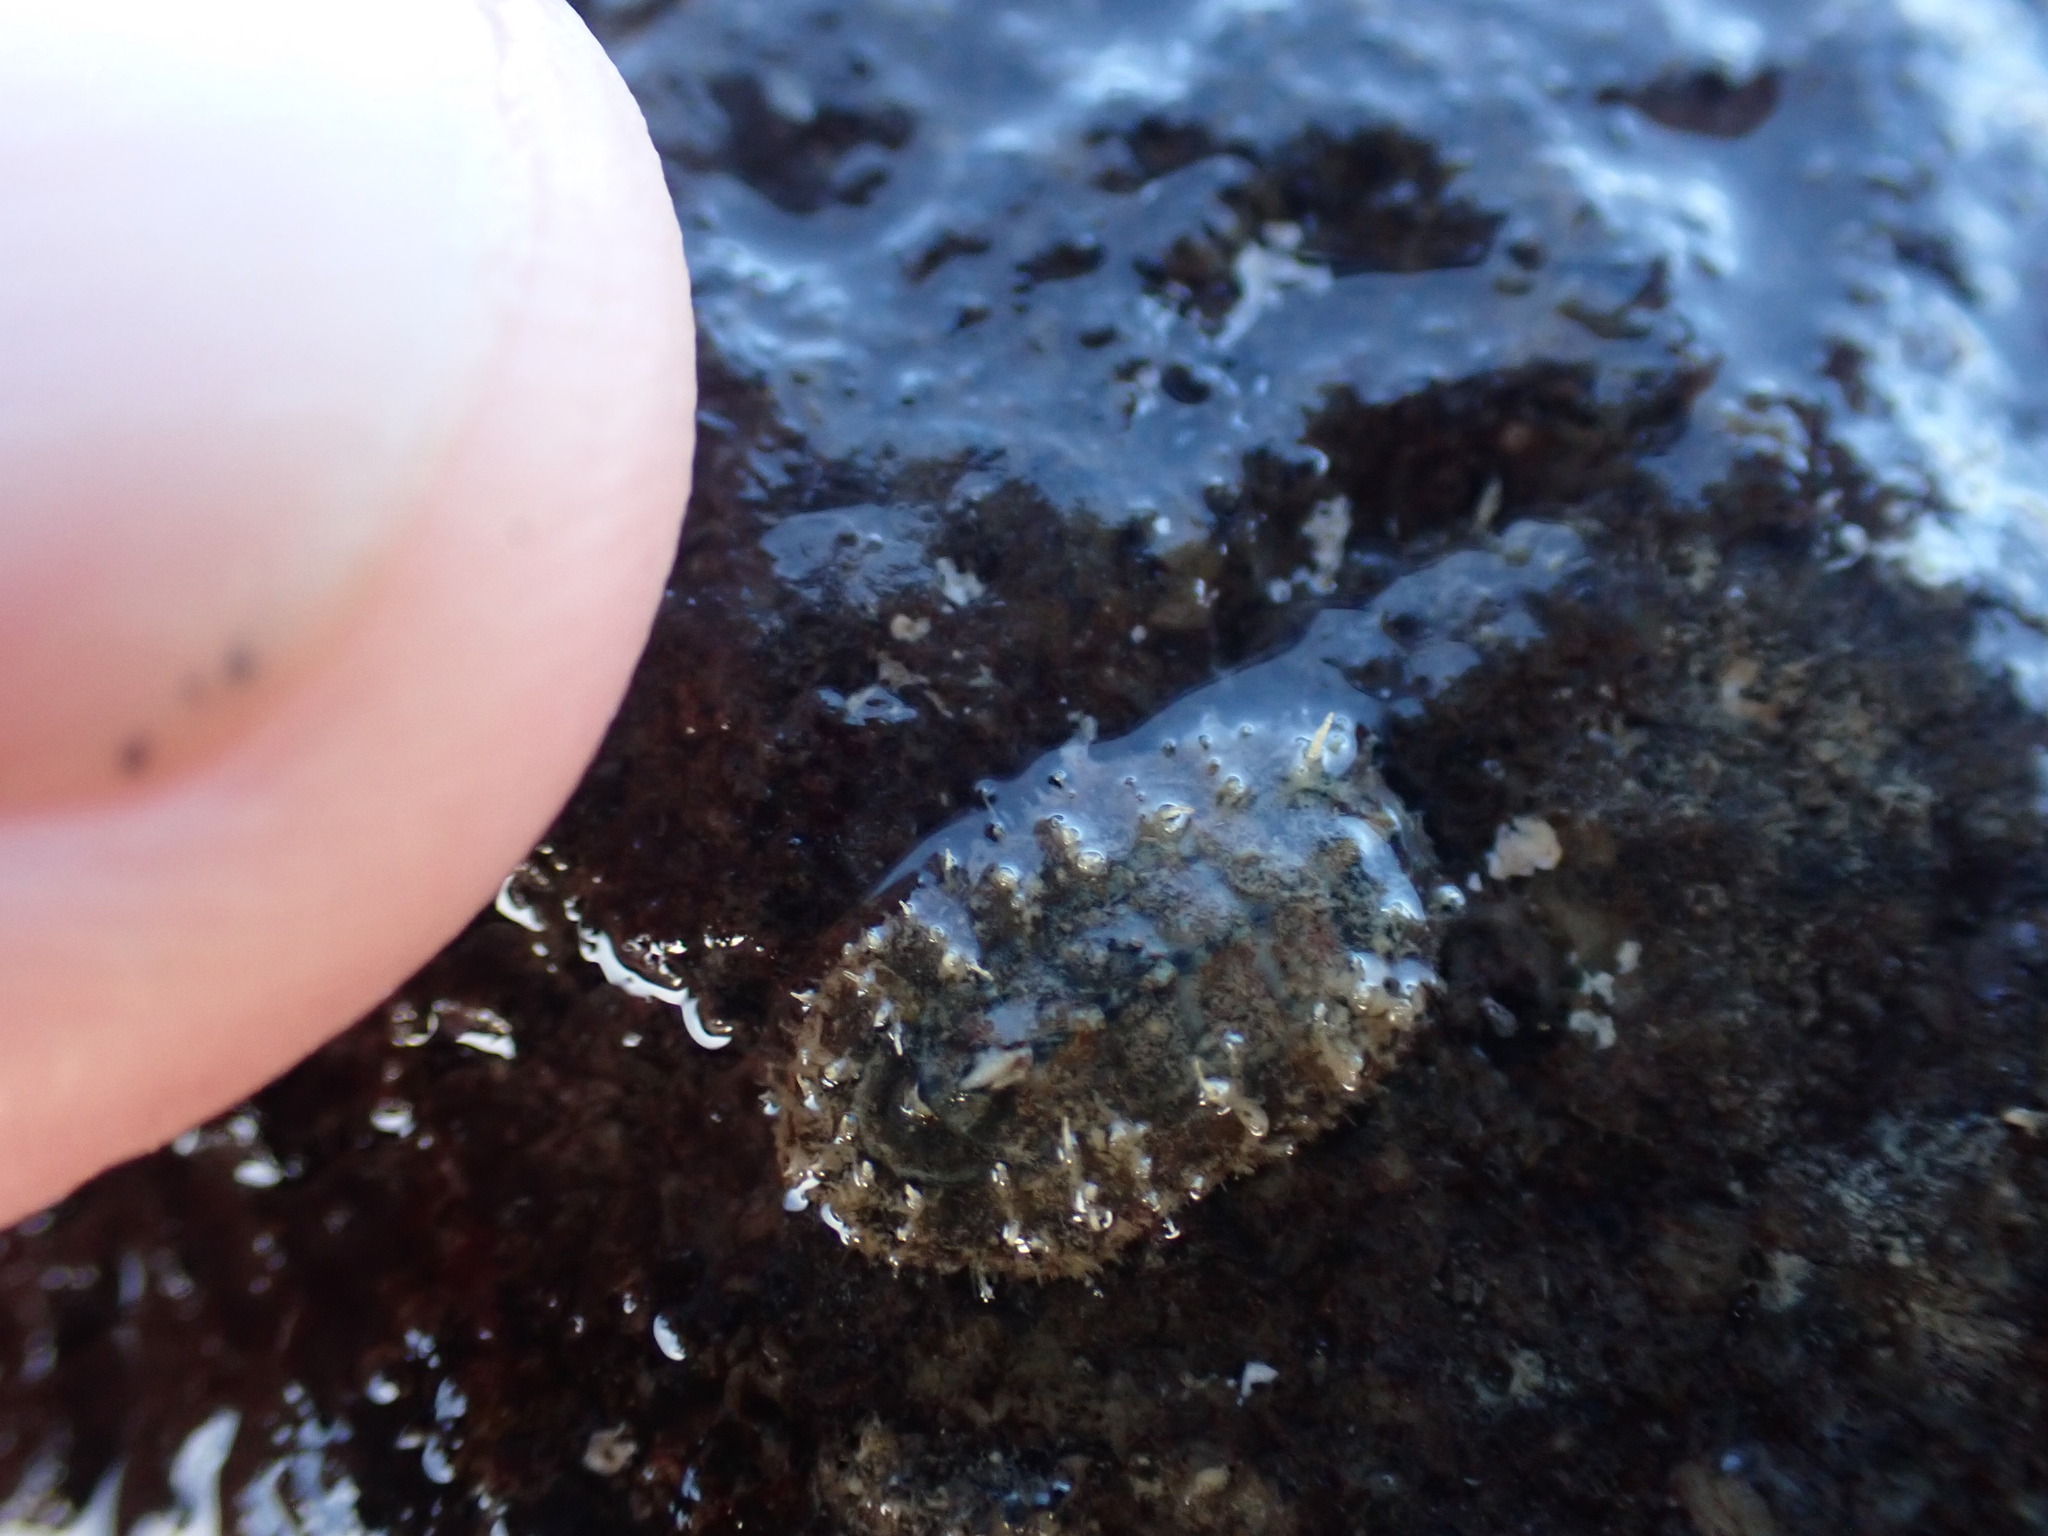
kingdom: Animalia
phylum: Mollusca
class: Polyplacophora
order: Chitonida
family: Acanthochitonidae
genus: Acanthochitona
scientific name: Acanthochitona zelandica
